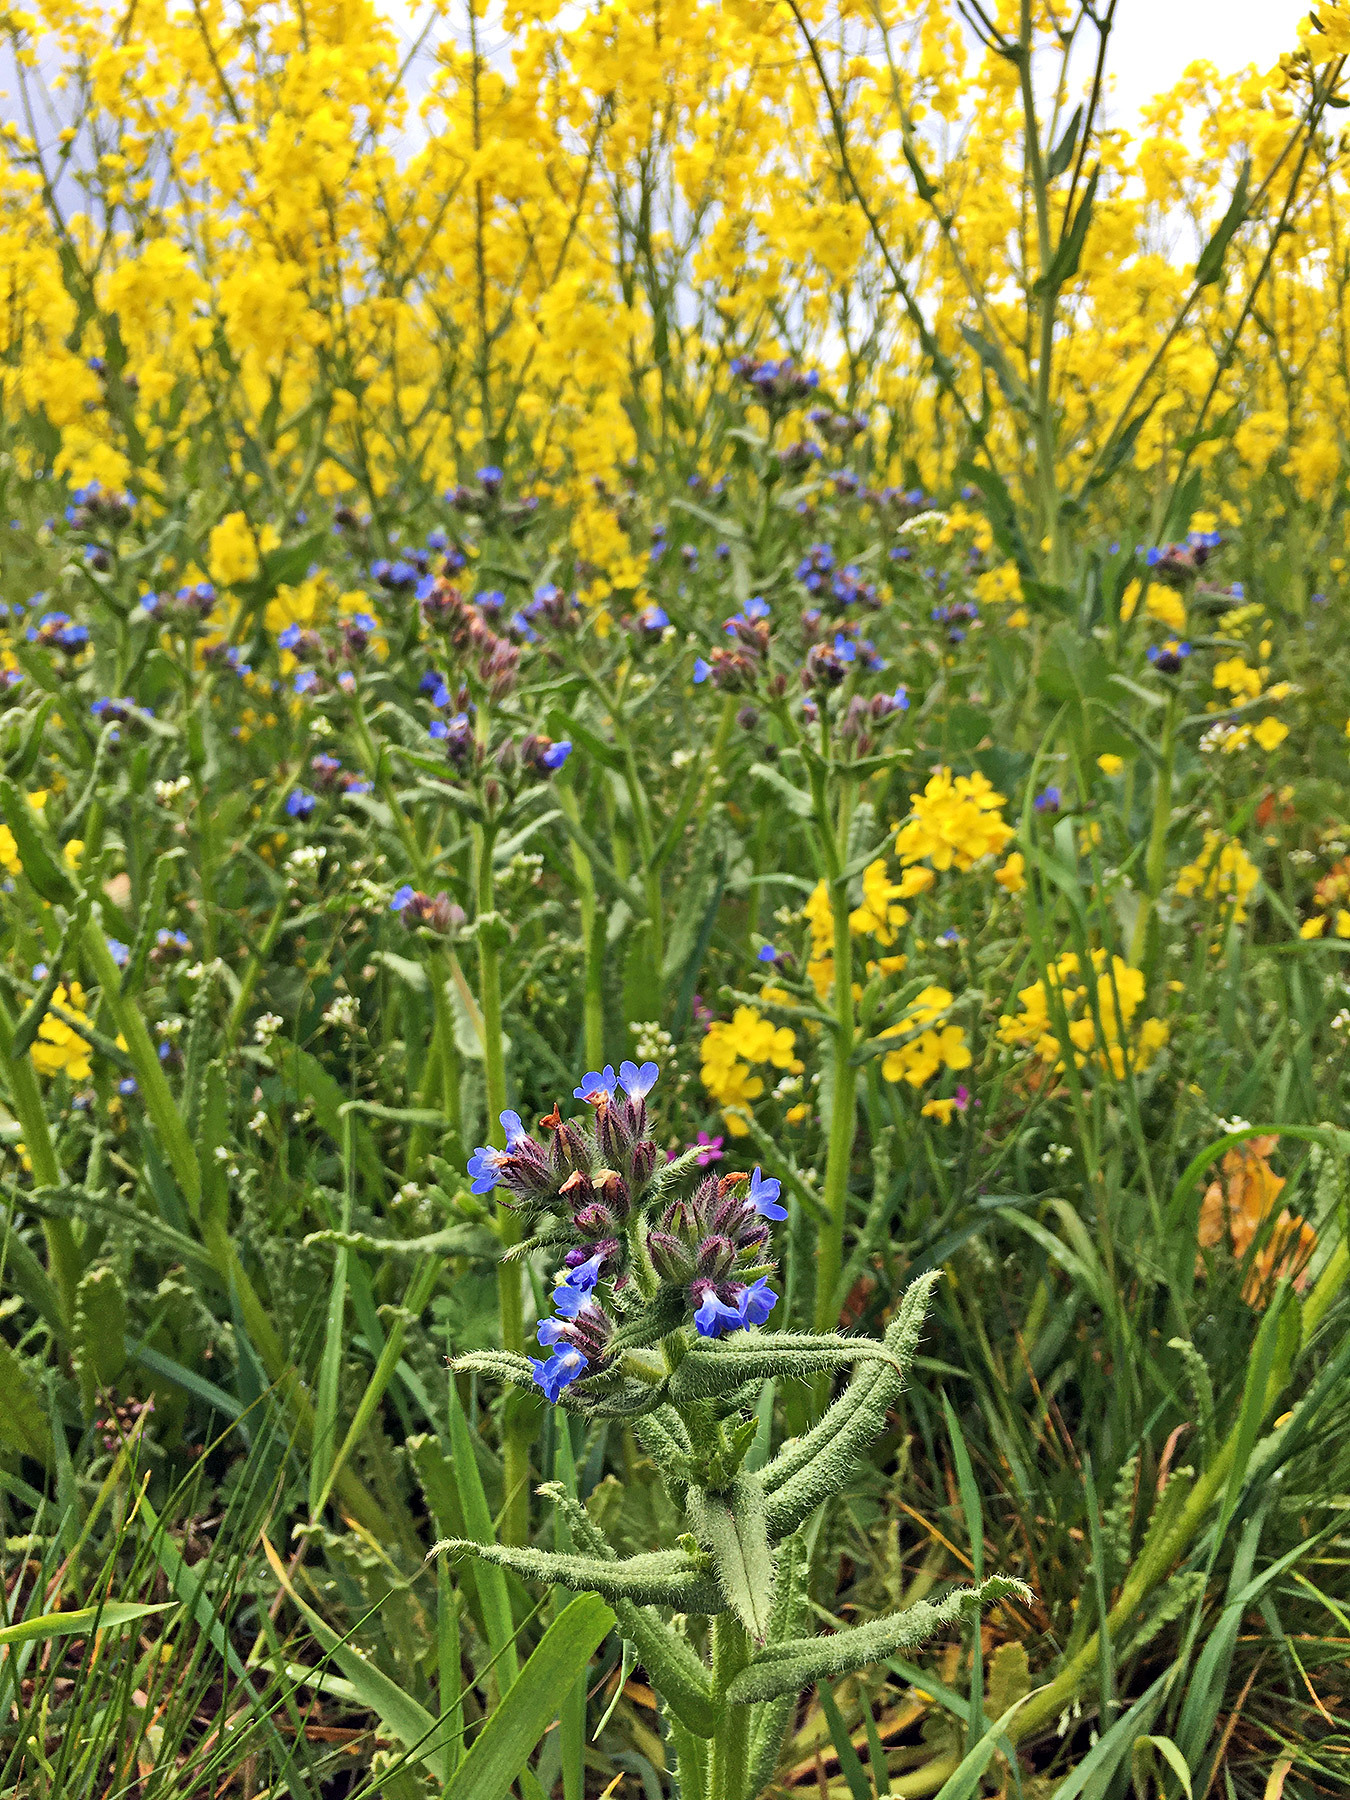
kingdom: Plantae
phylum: Tracheophyta
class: Magnoliopsida
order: Boraginales
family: Boraginaceae
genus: Lycopsis
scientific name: Lycopsis arvensis
